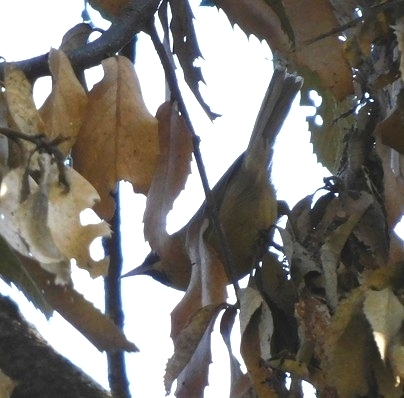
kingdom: Animalia
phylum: Chordata
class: Aves
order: Passeriformes
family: Timaliidae
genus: Stachyridopsis
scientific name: Stachyridopsis pyrrhops
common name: Black-chinned babbler
